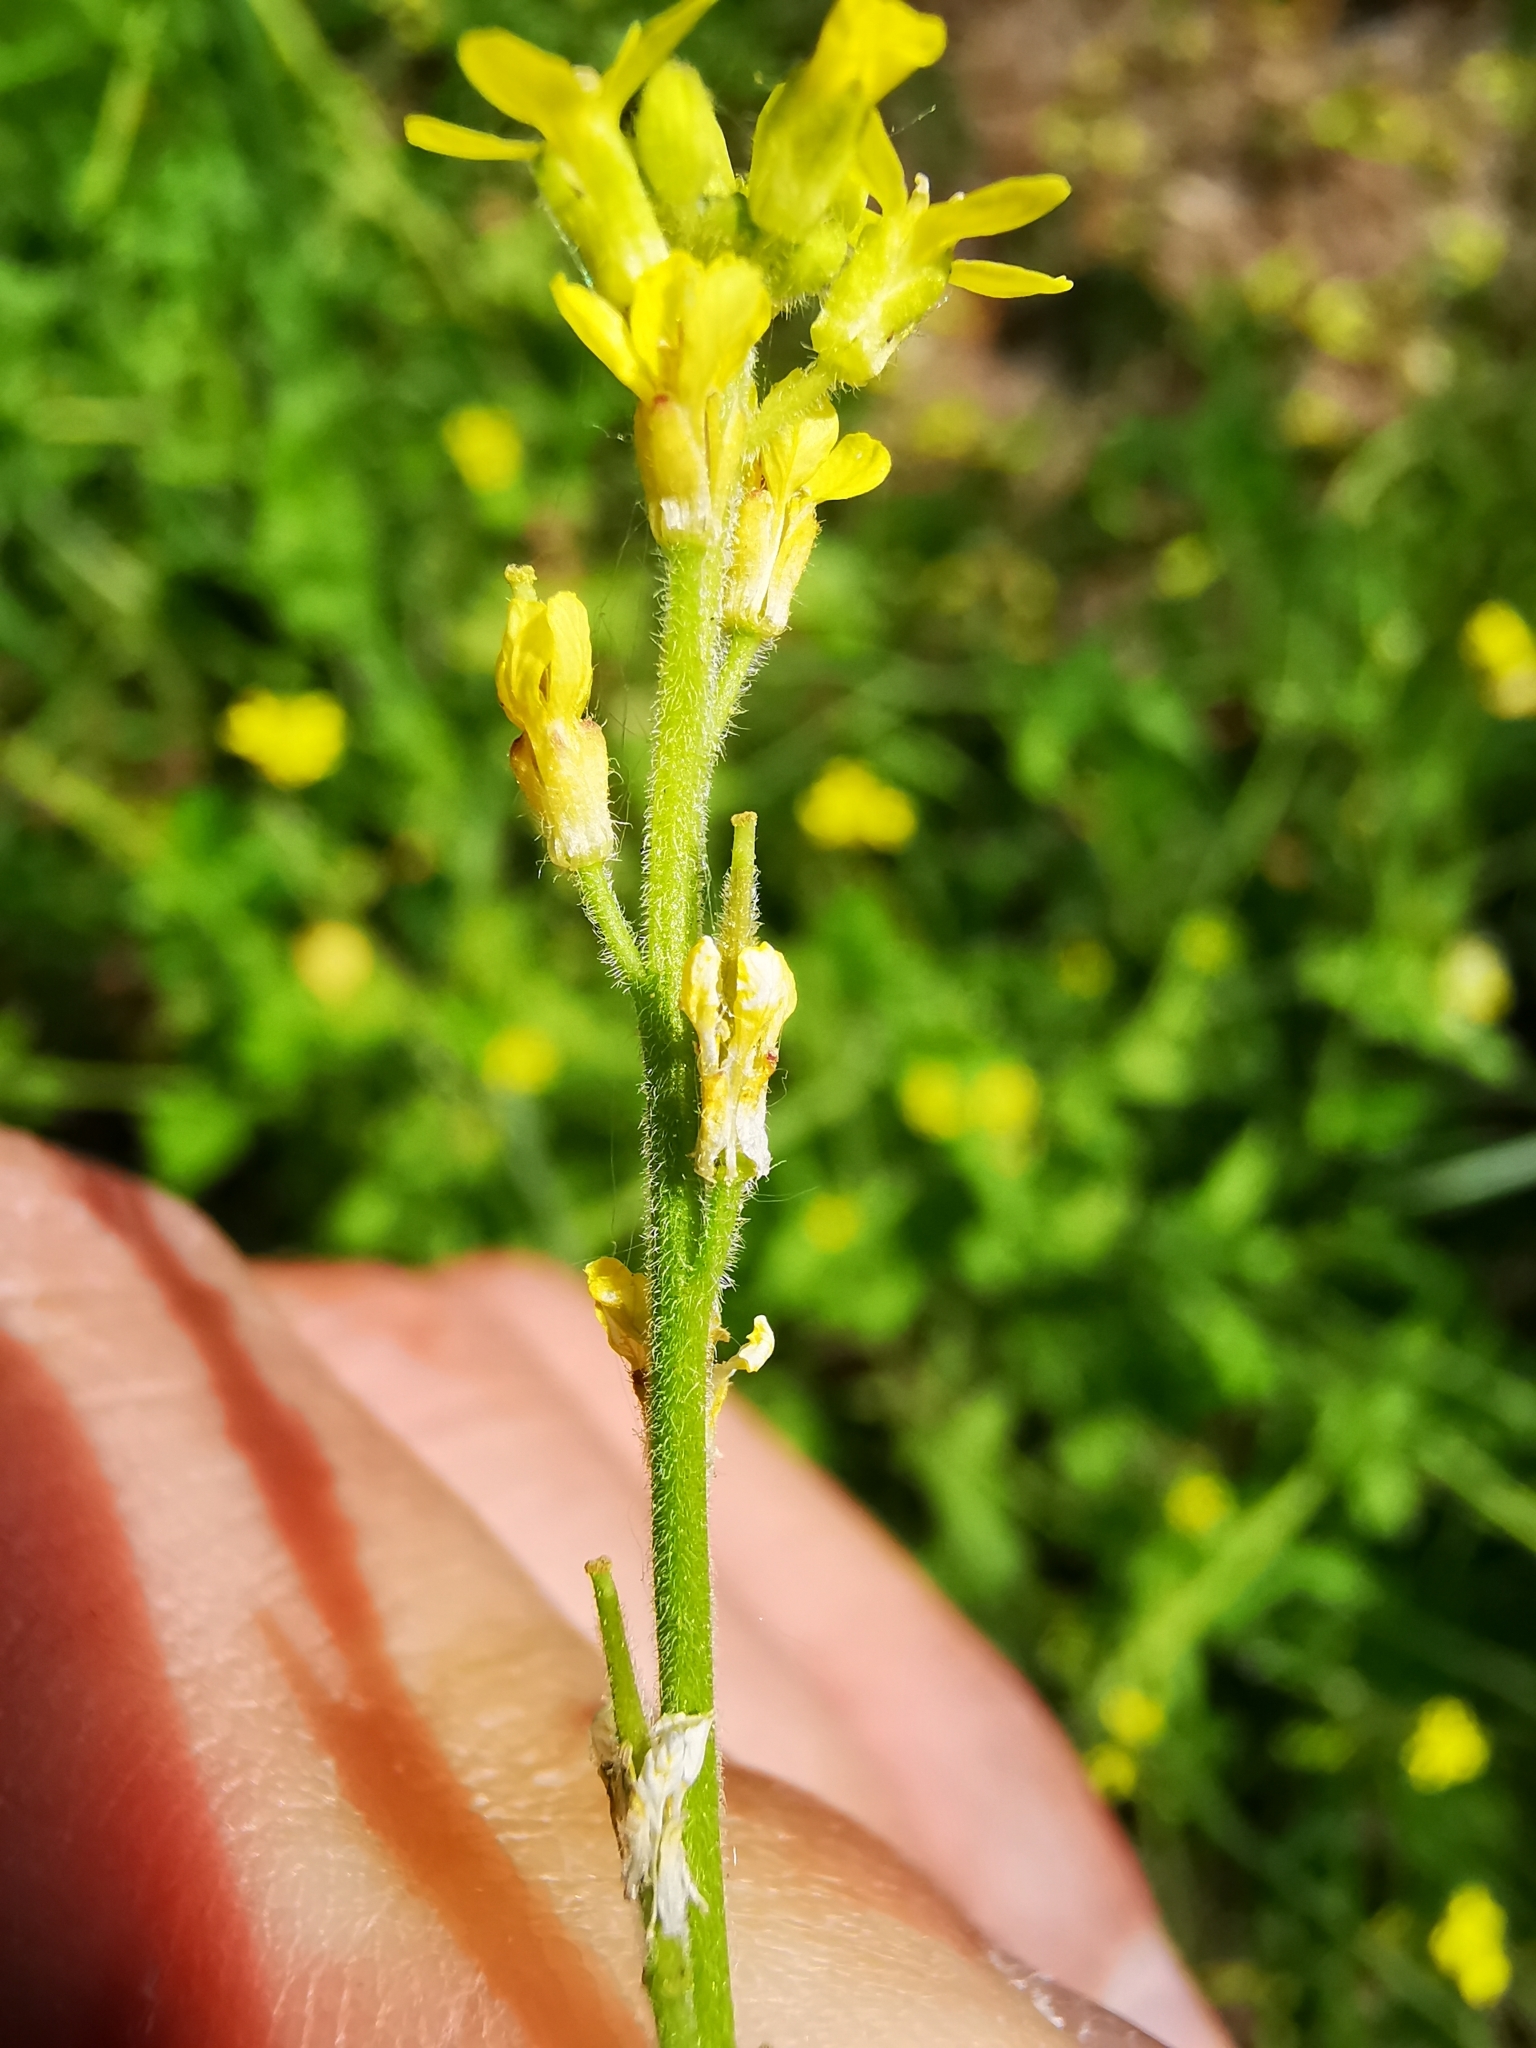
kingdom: Plantae
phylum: Tracheophyta
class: Magnoliopsida
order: Brassicales
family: Brassicaceae
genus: Sisymbrium
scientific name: Sisymbrium officinale
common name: Hedge mustard
